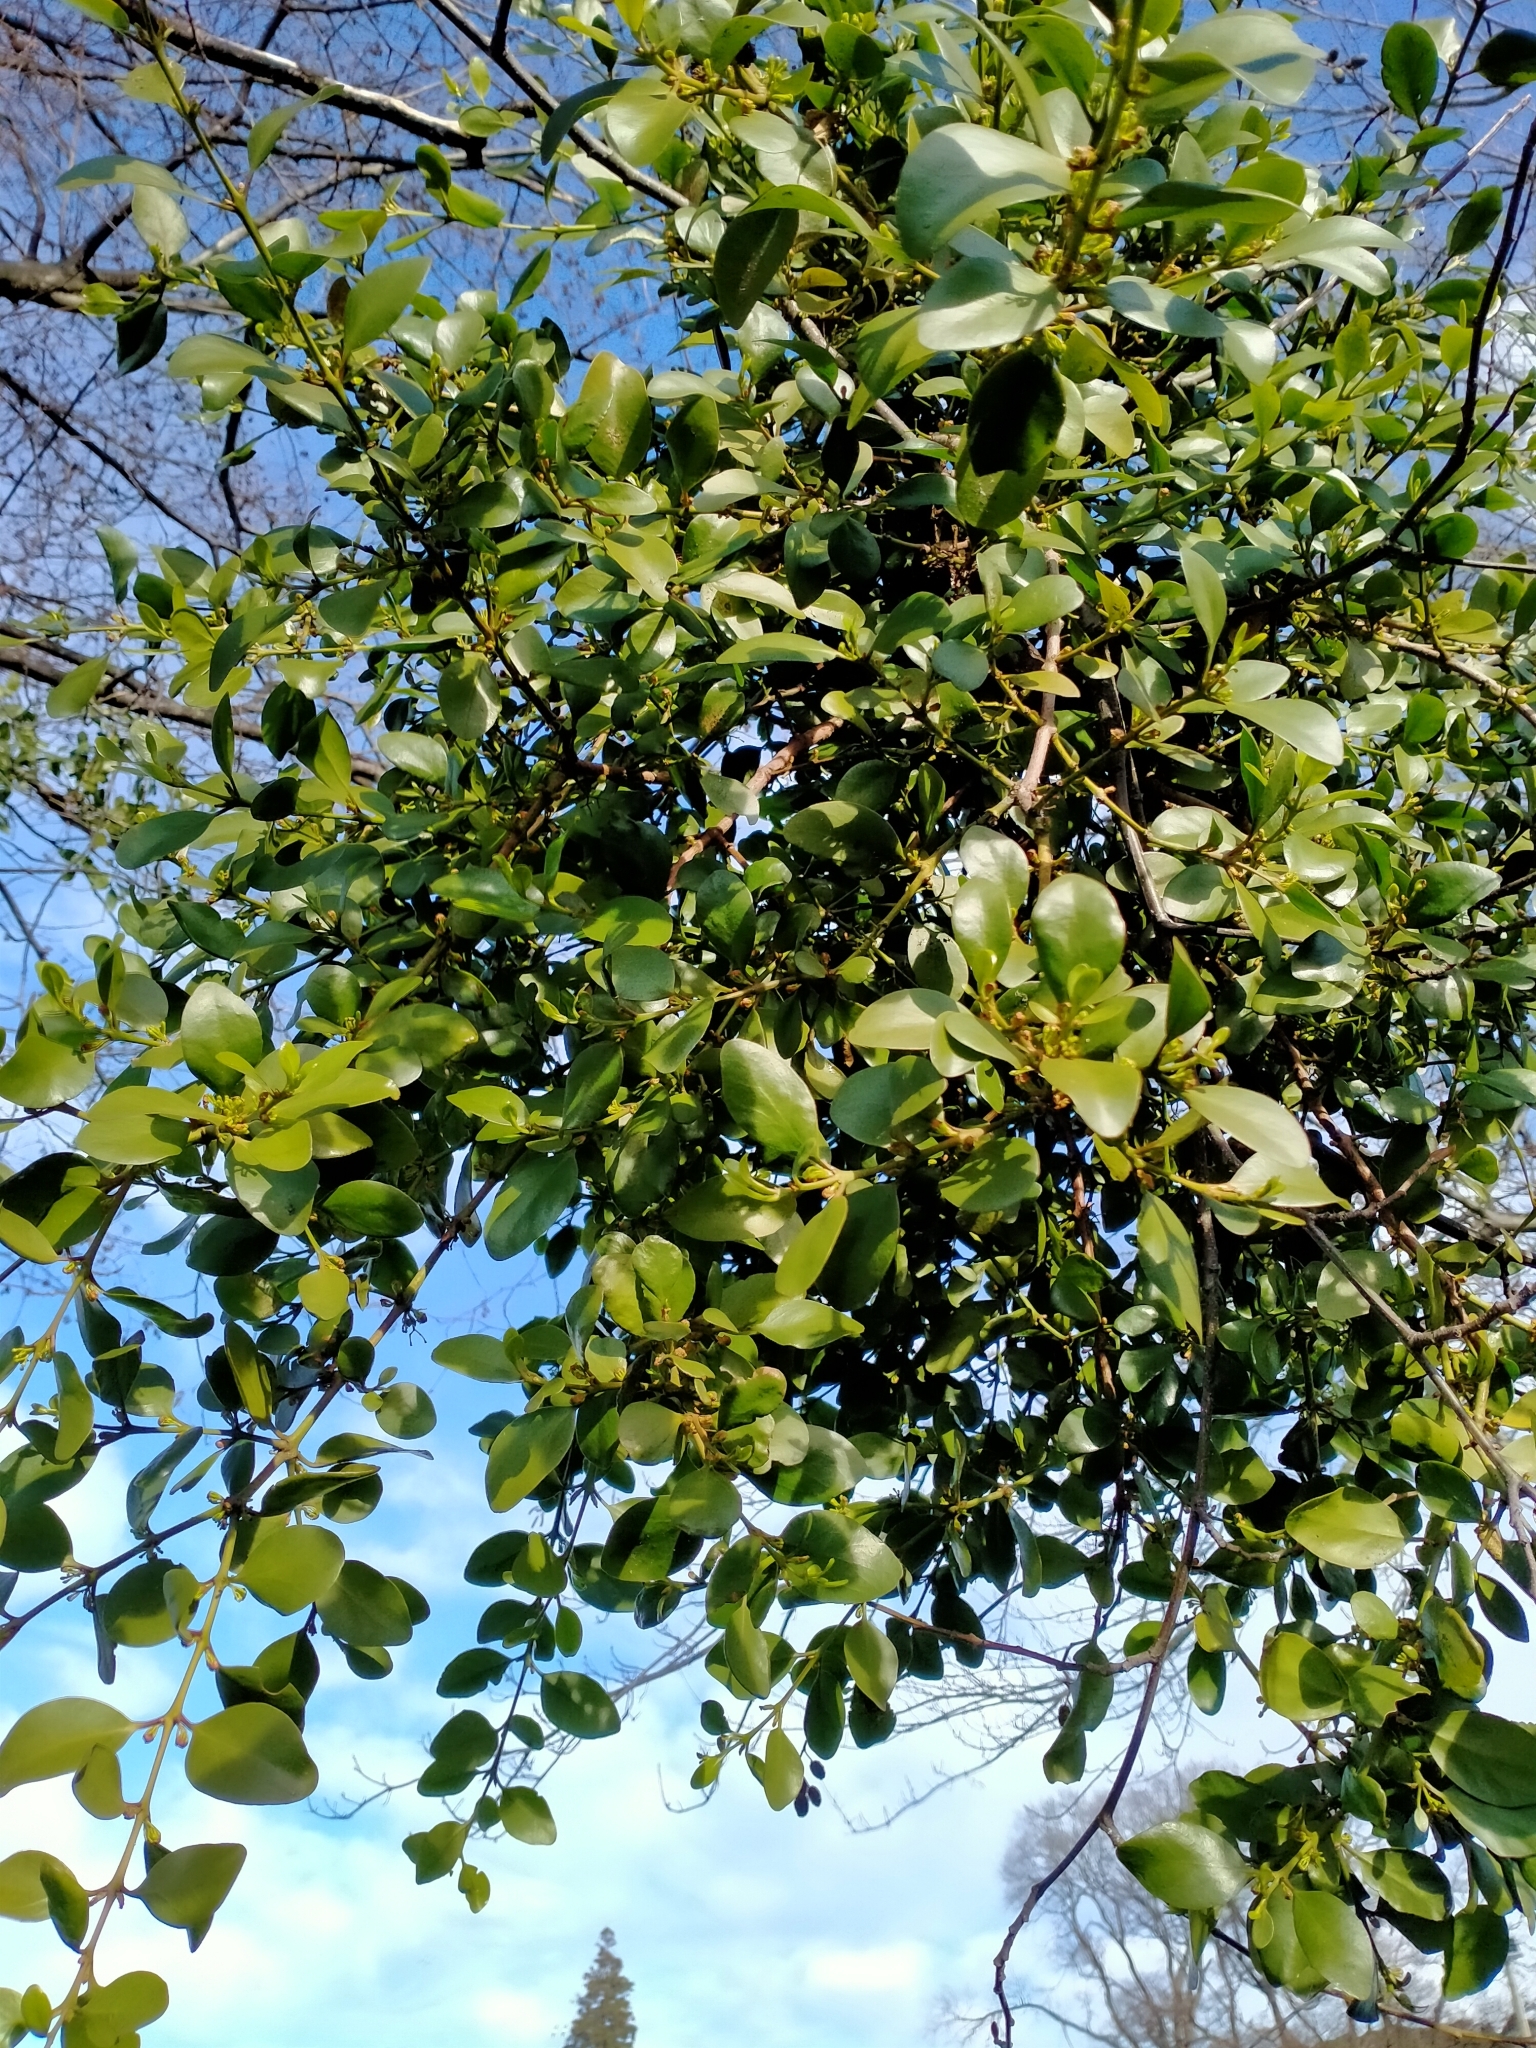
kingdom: Plantae
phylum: Tracheophyta
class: Magnoliopsida
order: Santalales
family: Loranthaceae
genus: Ileostylus
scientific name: Ileostylus micranthus
